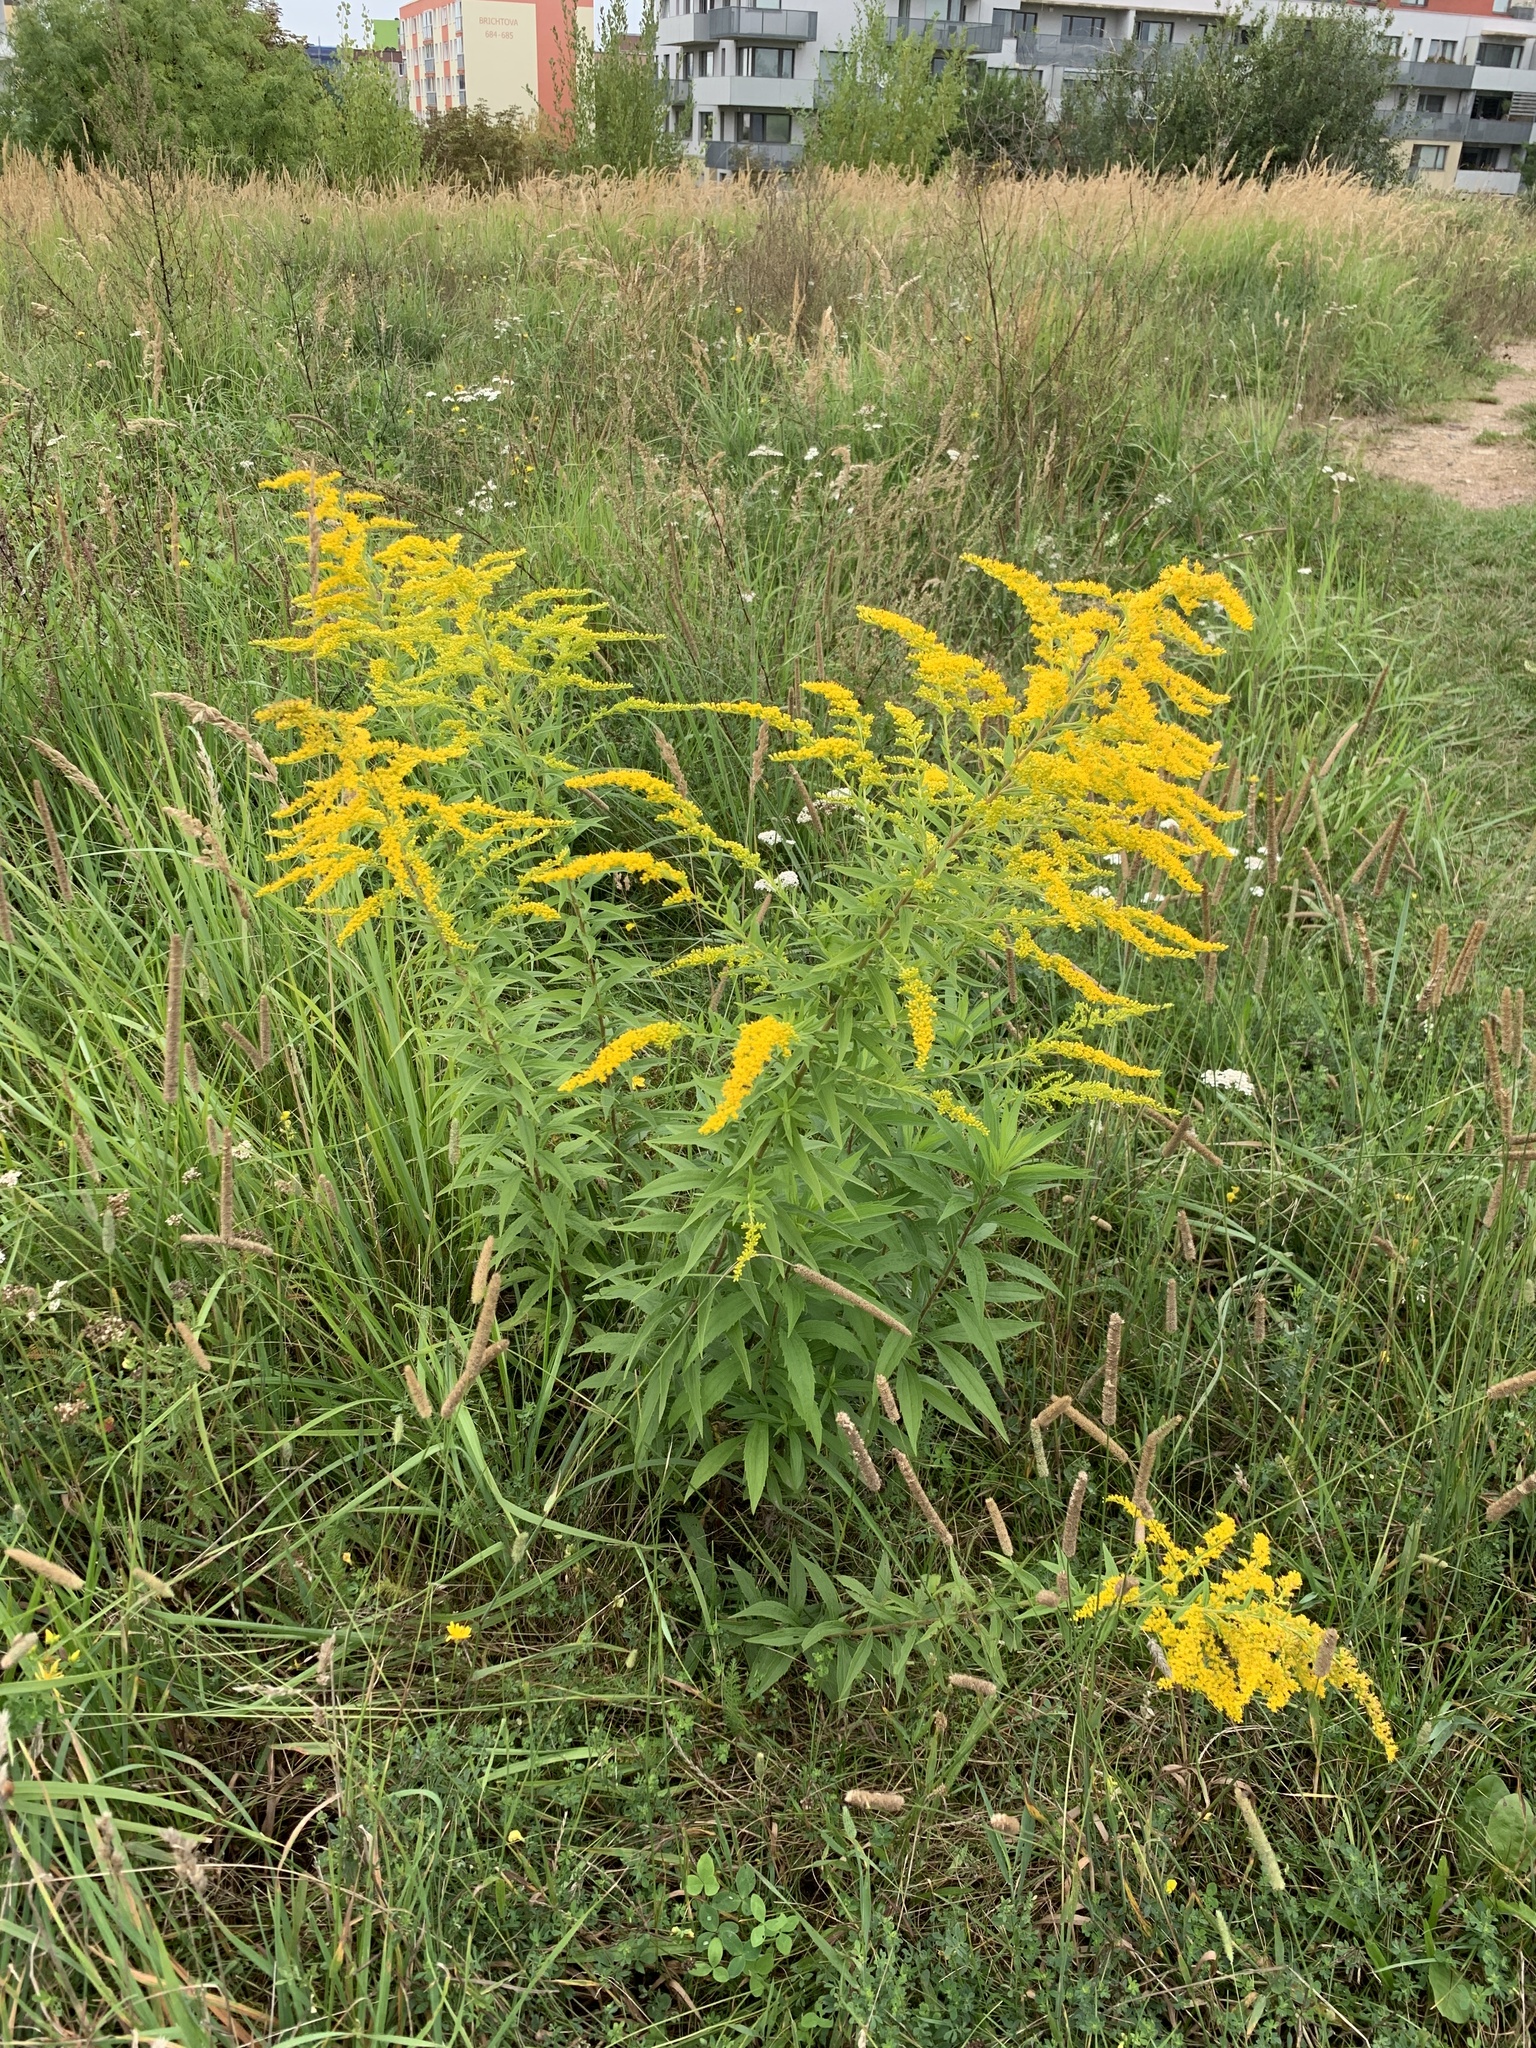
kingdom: Plantae
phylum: Tracheophyta
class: Magnoliopsida
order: Asterales
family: Asteraceae
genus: Solidago
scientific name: Solidago canadensis
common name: Canada goldenrod
